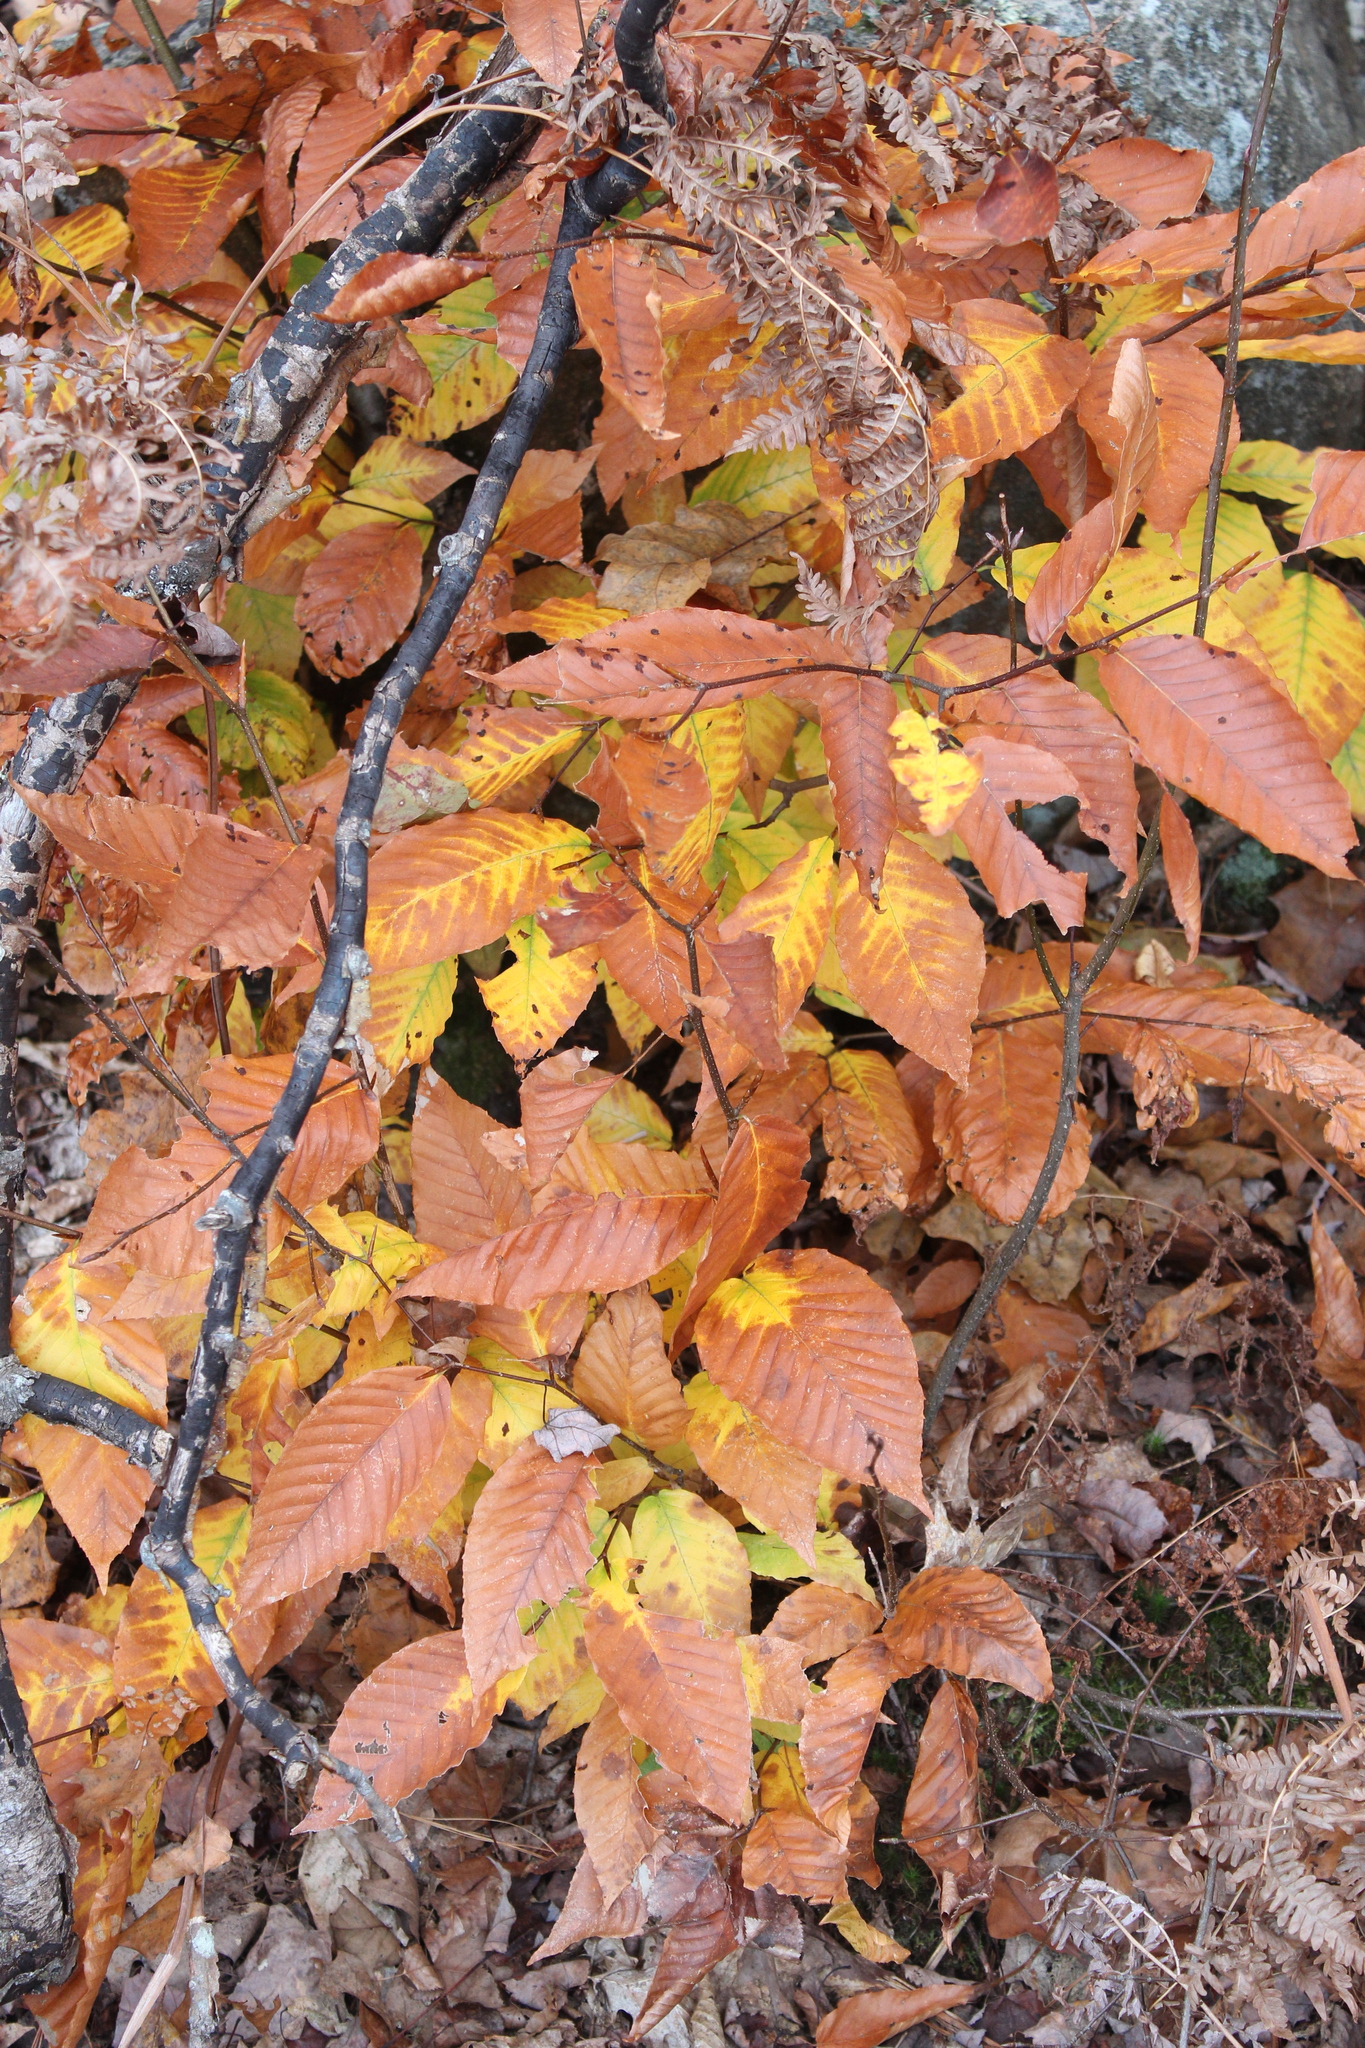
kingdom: Plantae
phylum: Tracheophyta
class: Magnoliopsida
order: Fagales
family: Fagaceae
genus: Fagus
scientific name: Fagus grandifolia
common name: American beech
